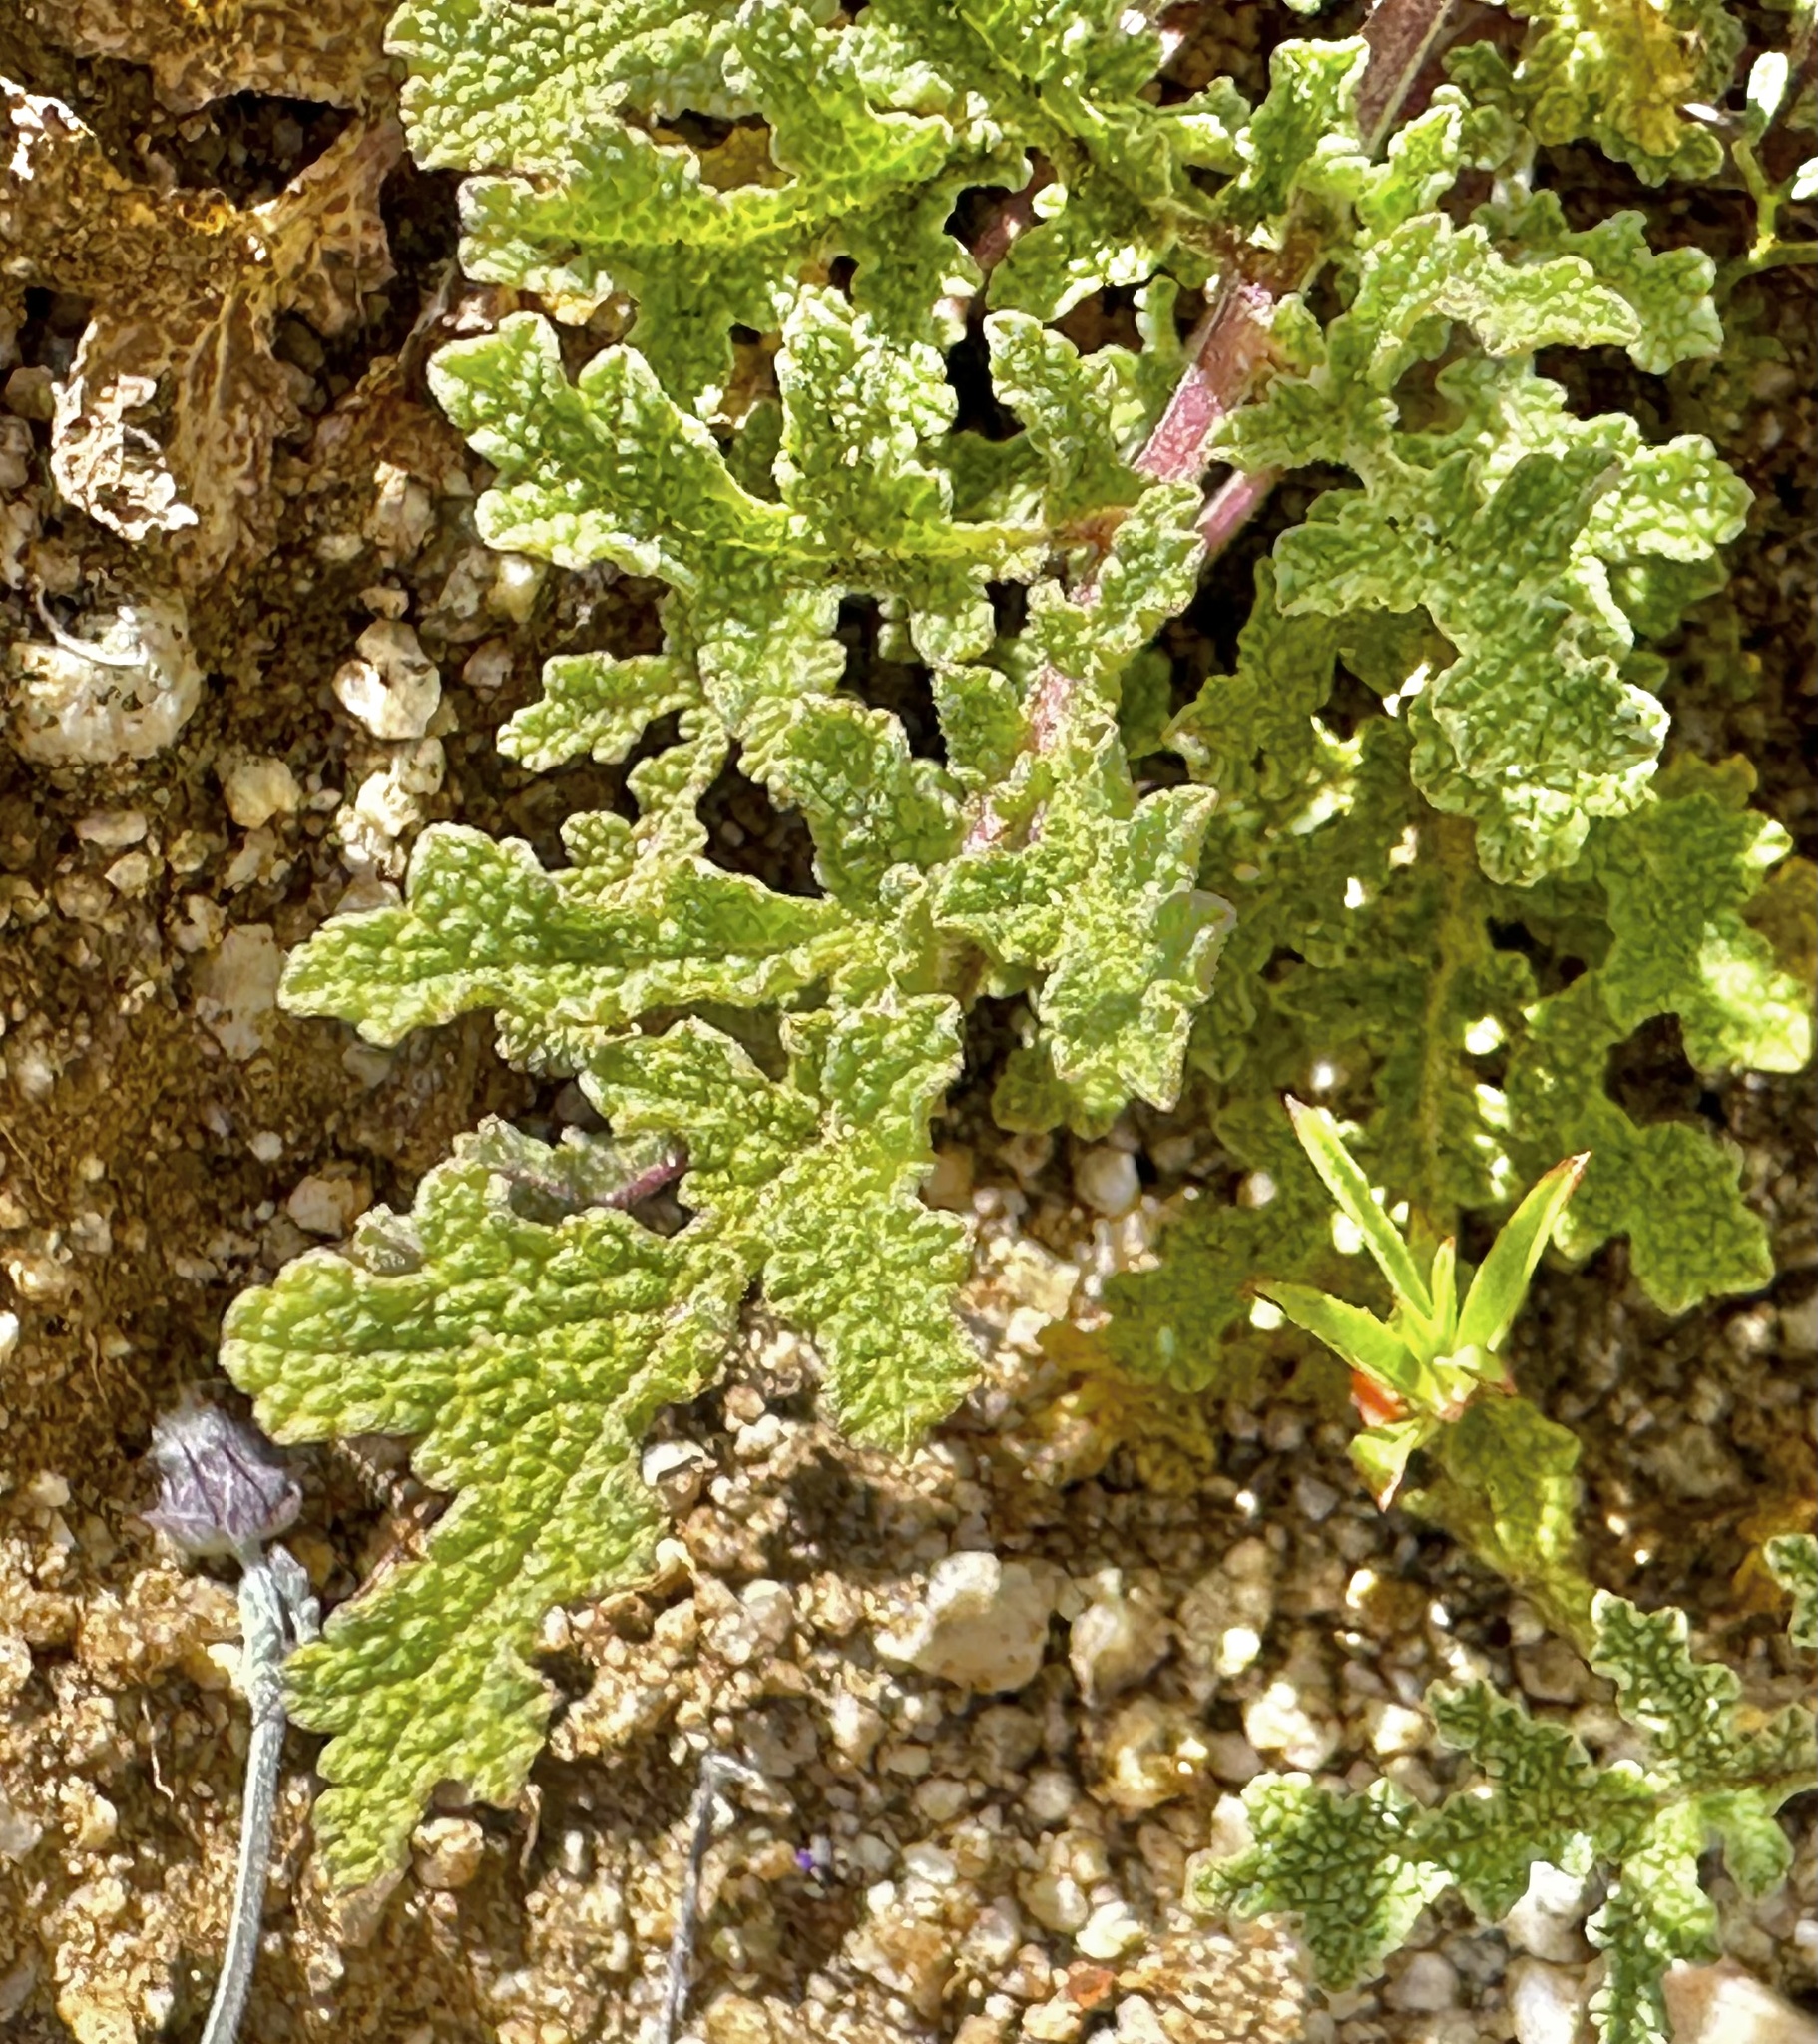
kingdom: Plantae
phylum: Tracheophyta
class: Magnoliopsida
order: Lamiales
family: Lamiaceae
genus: Salvia
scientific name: Salvia columbariae
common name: Chia
